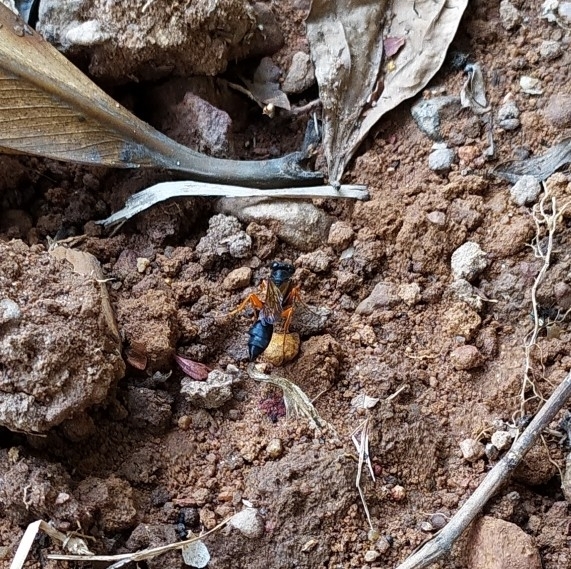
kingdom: Animalia
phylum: Arthropoda
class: Insecta
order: Hymenoptera
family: Sphecidae
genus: Sceliphron
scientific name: Sceliphron coromandelicum
